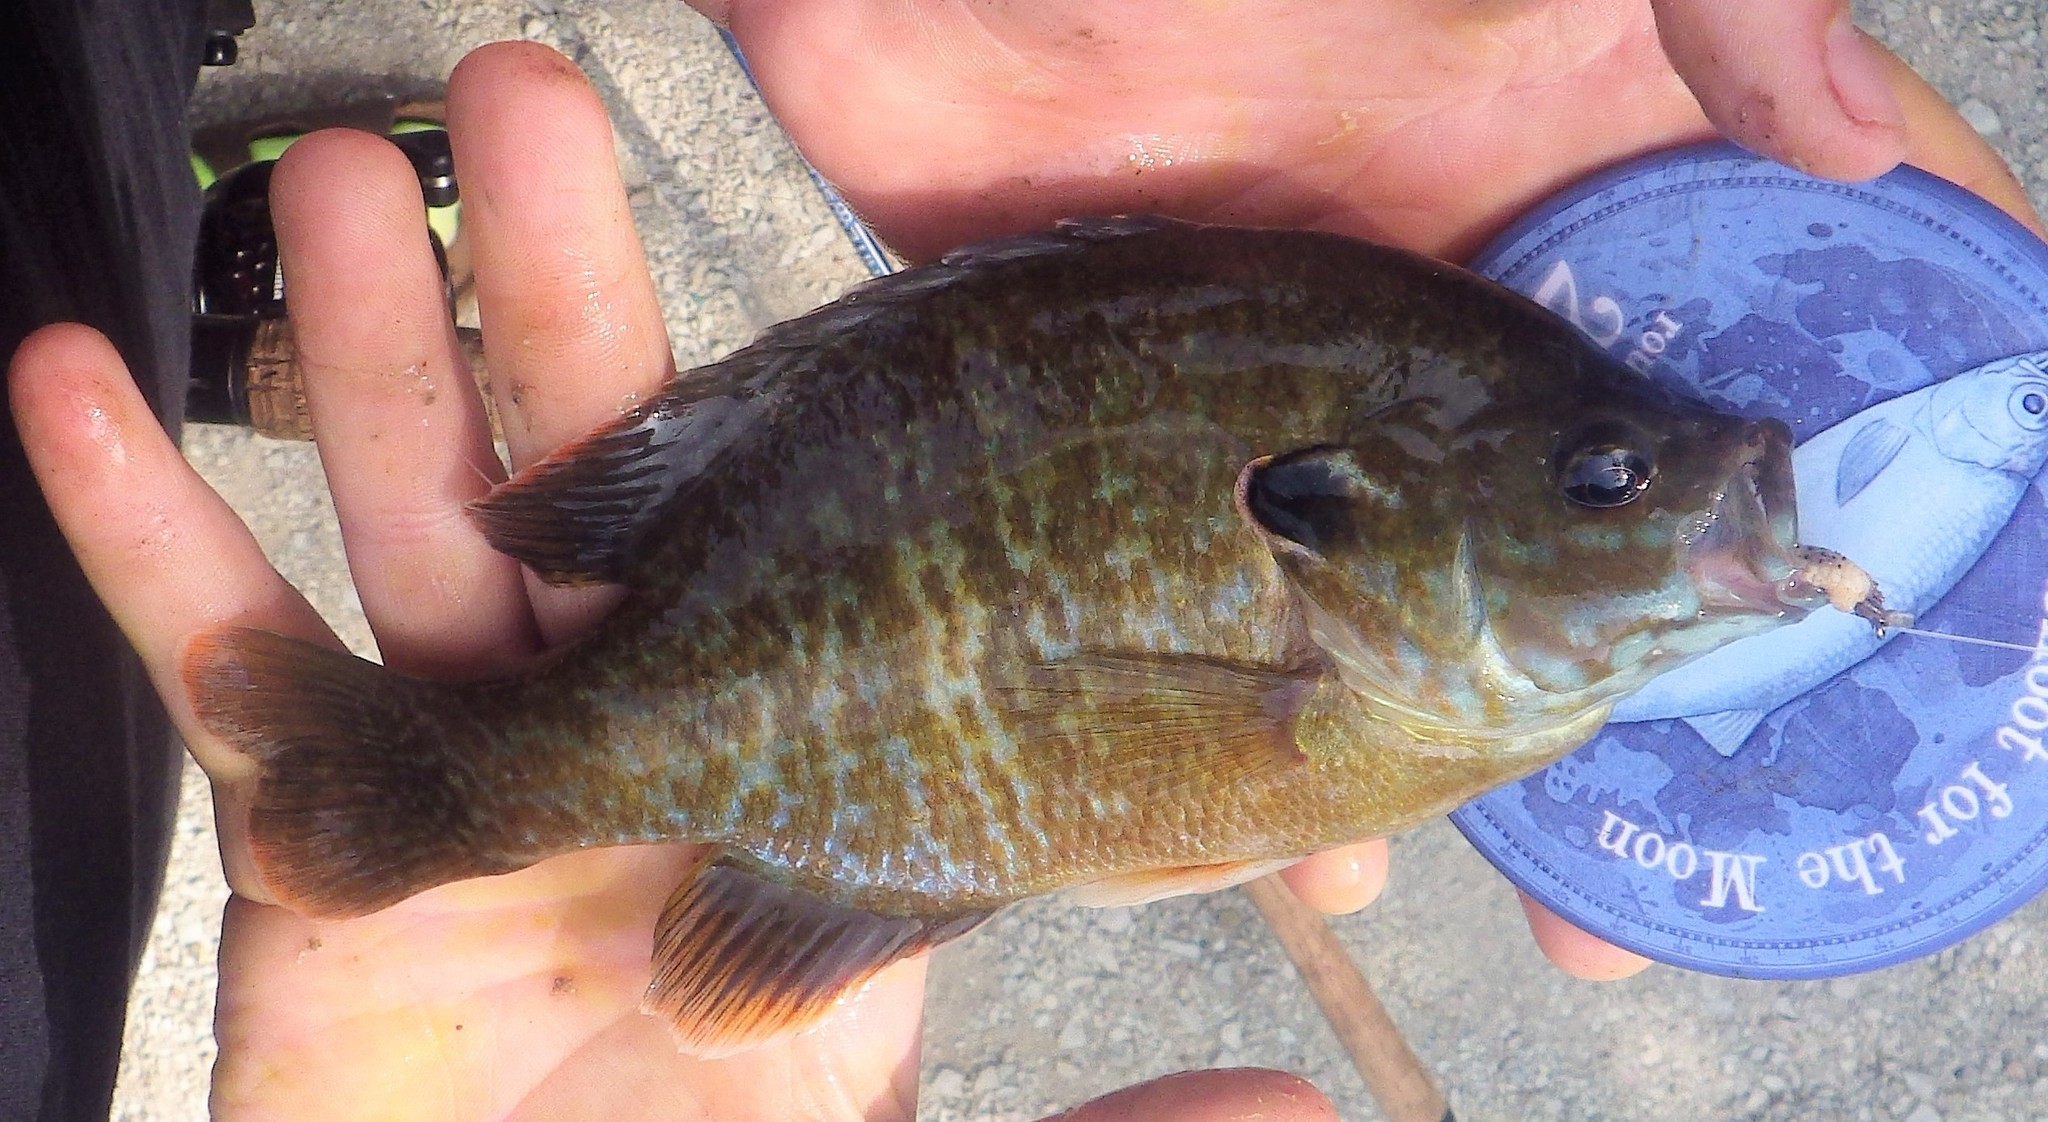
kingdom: Animalia
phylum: Chordata
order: Perciformes
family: Centrarchidae
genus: Lepomis
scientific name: Lepomis
